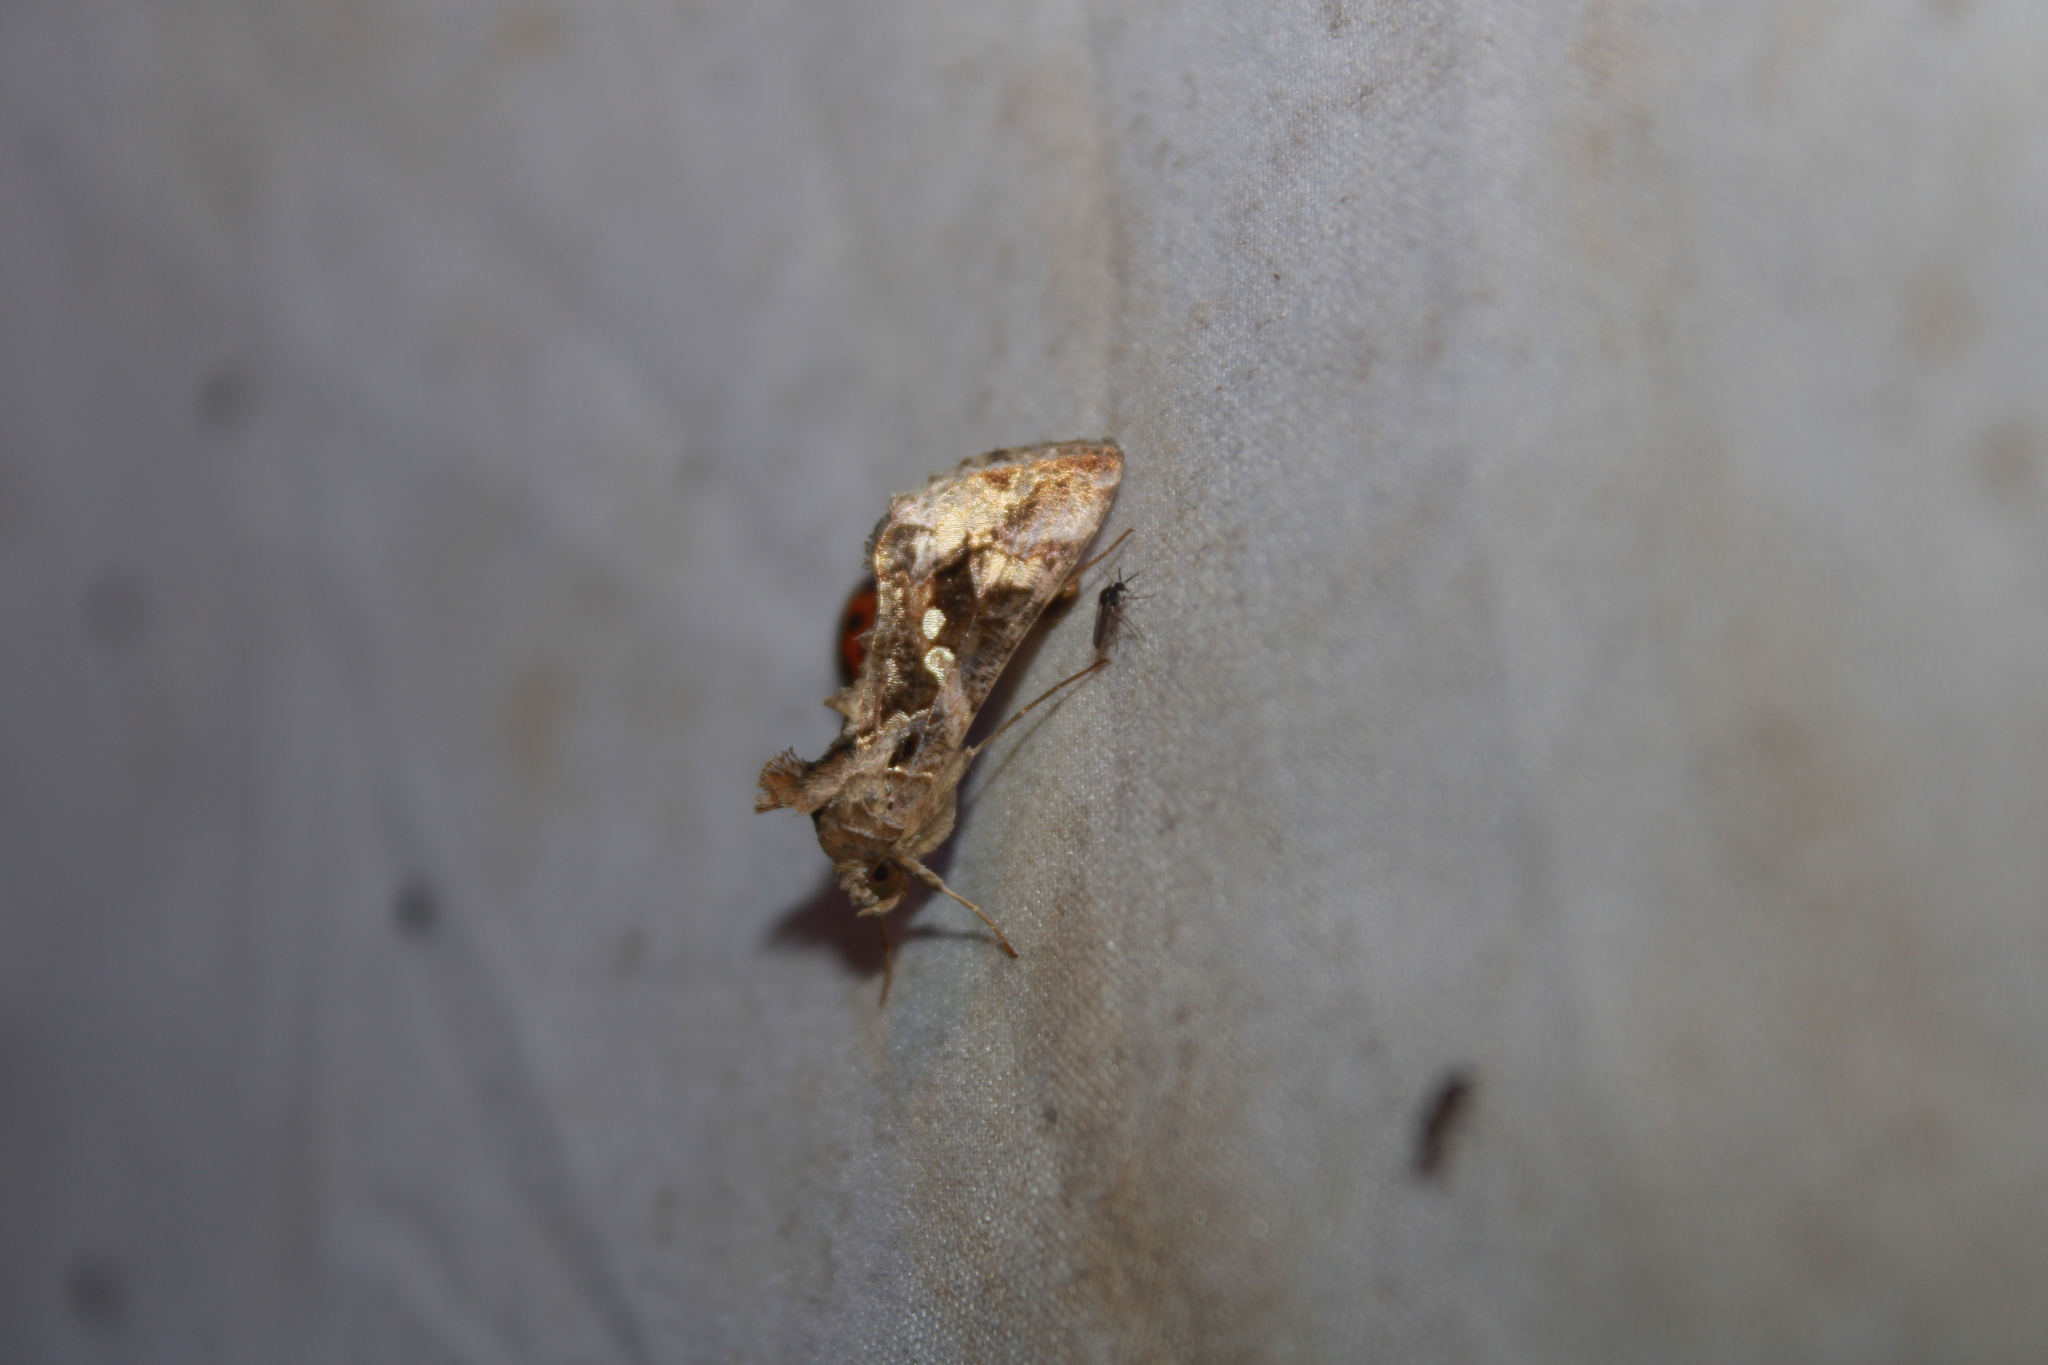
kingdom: Animalia
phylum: Arthropoda
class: Insecta
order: Lepidoptera
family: Noctuidae
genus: Chrysodeixis
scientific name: Chrysodeixis includens
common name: Cutworm moth
